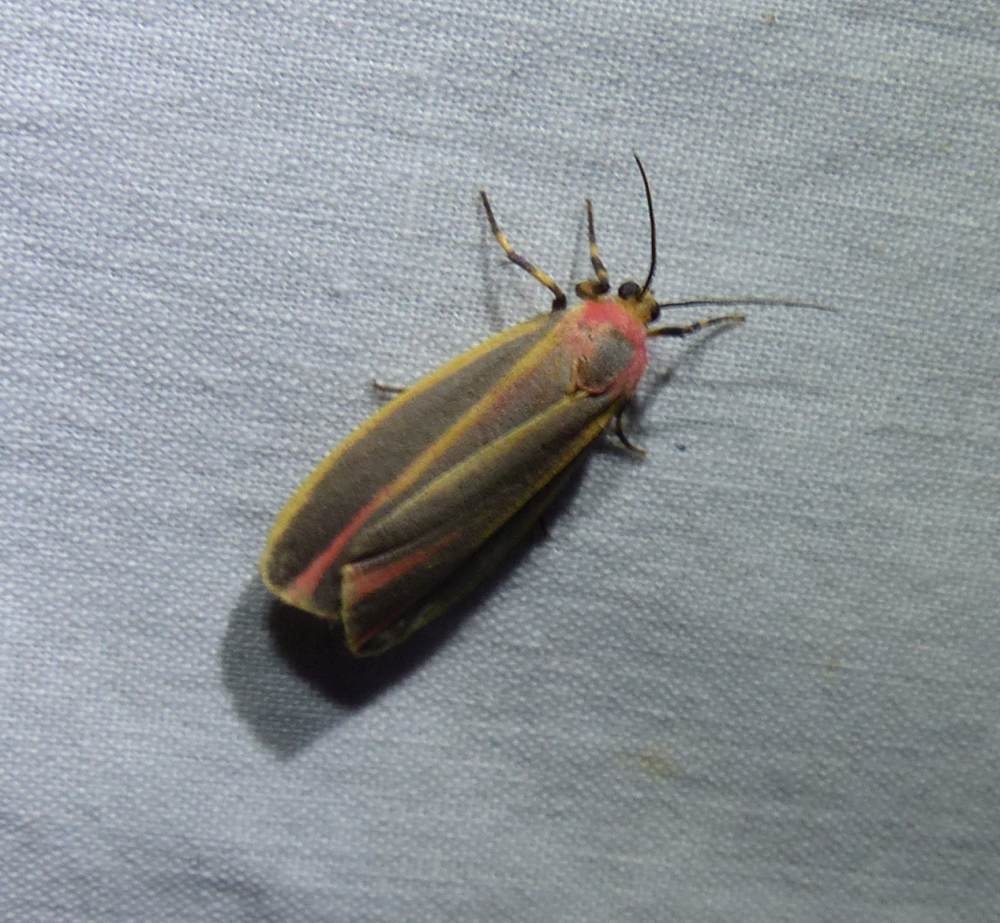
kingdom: Animalia
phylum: Arthropoda
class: Insecta
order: Lepidoptera
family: Erebidae
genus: Hypoprepia
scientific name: Hypoprepia fucosa
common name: Painted lichen moth
